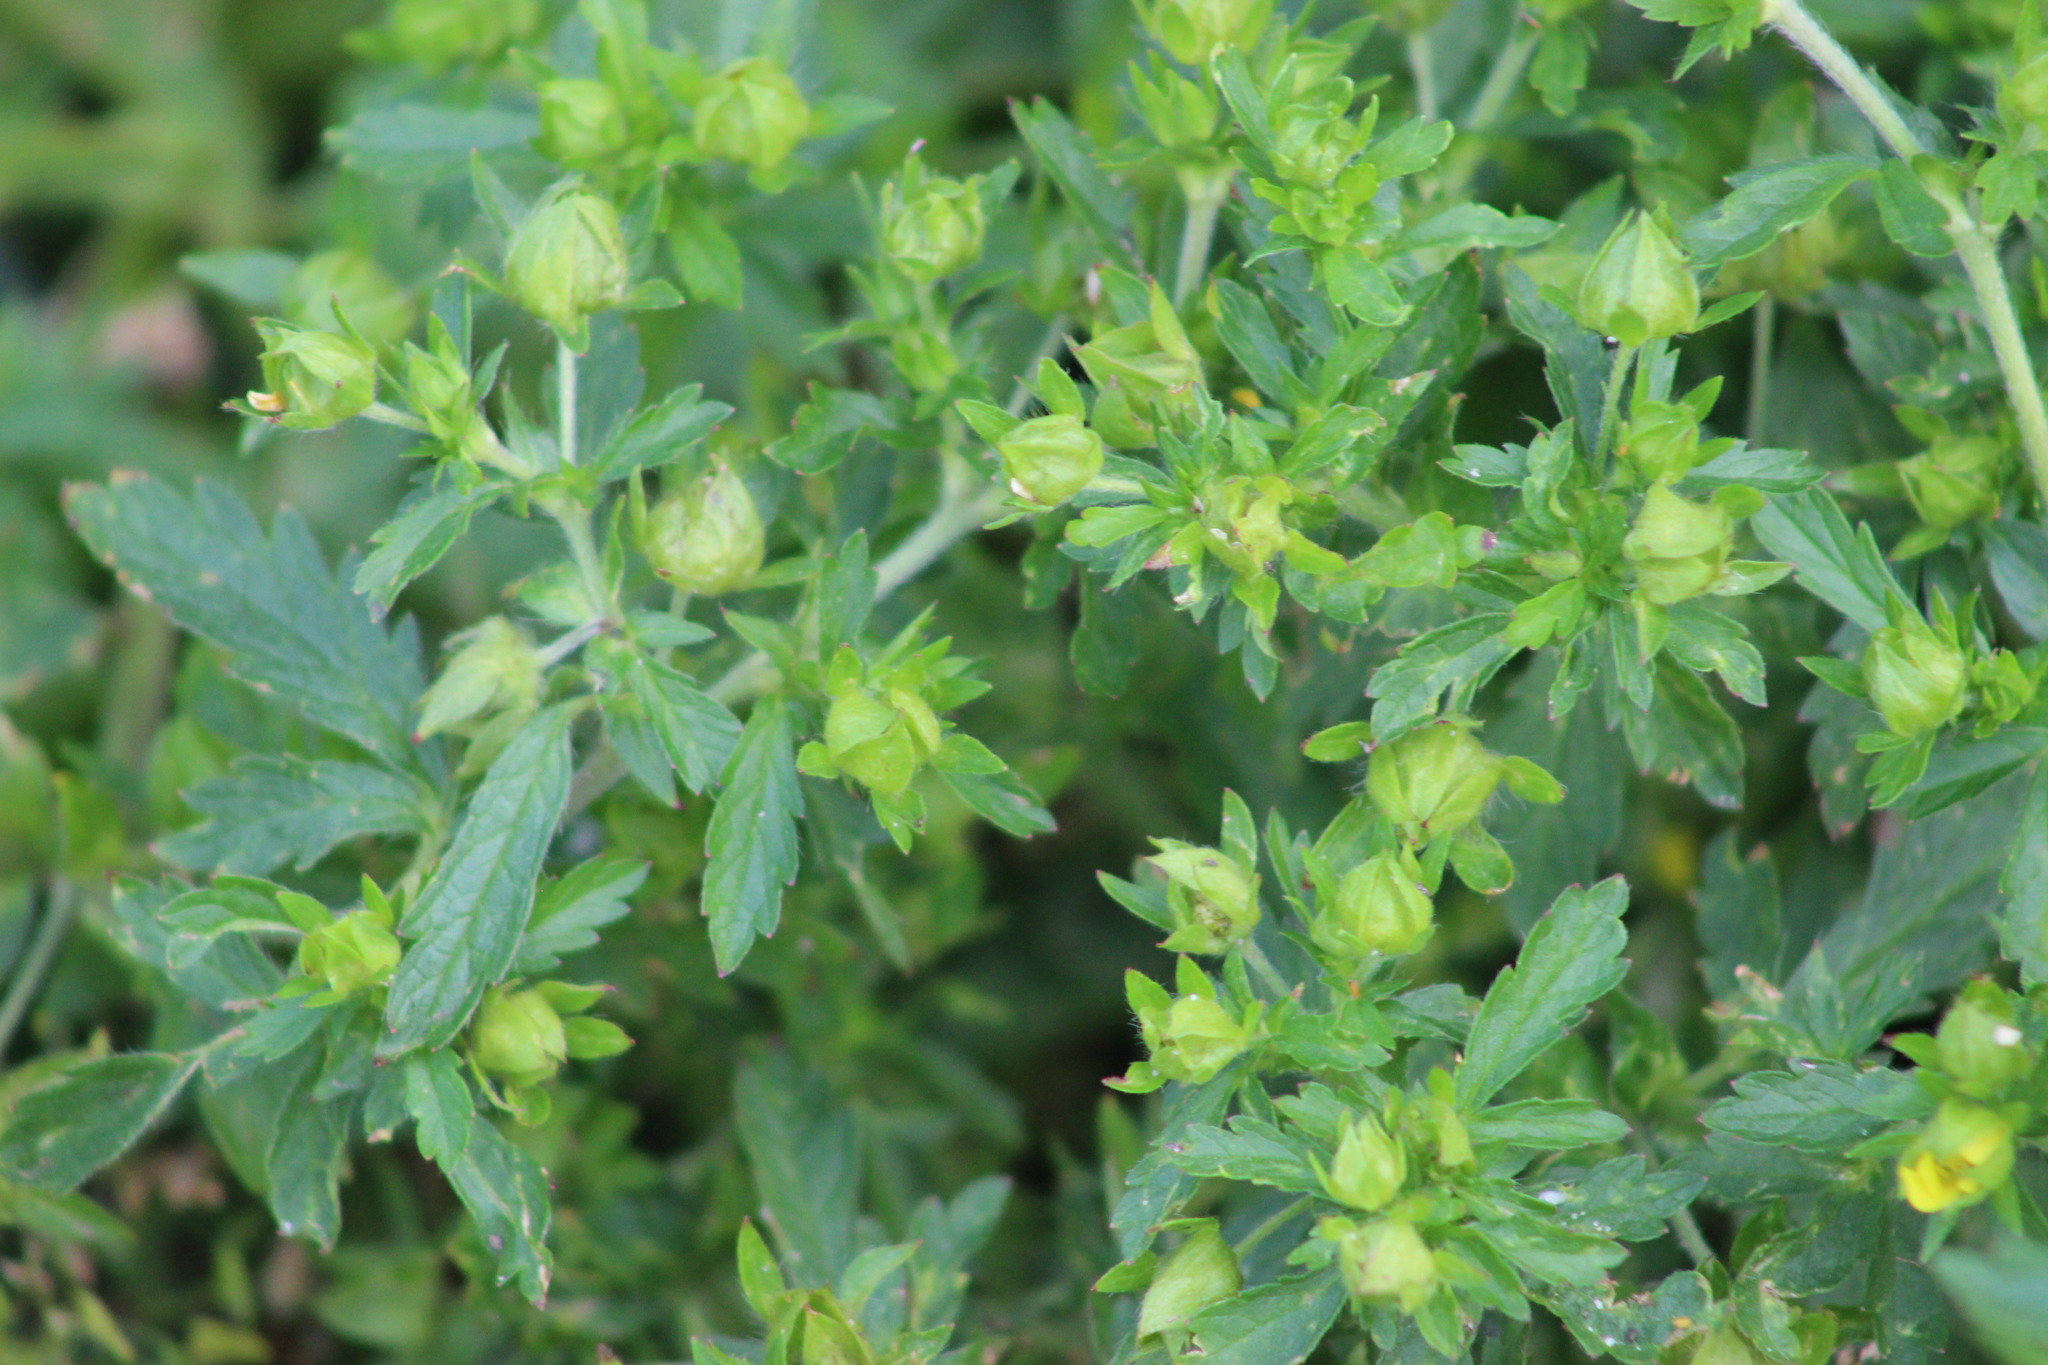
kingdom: Plantae
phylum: Tracheophyta
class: Magnoliopsida
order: Rosales
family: Rosaceae
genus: Potentilla
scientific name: Potentilla norvegica
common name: Ternate-leaved cinquefoil
